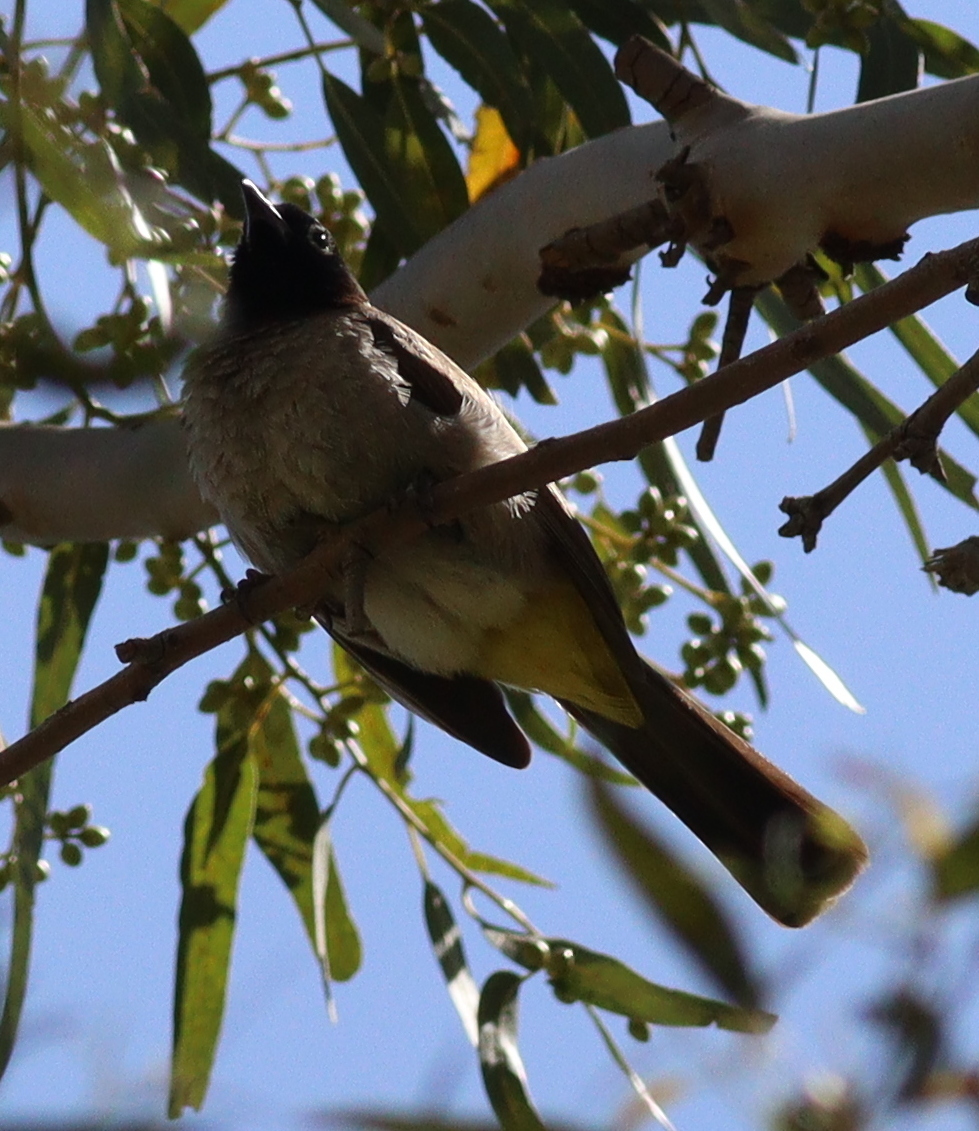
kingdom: Animalia
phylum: Chordata
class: Aves
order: Passeriformes
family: Pycnonotidae
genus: Pycnonotus
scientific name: Pycnonotus xanthopygos
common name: White-spectacled bulbul
